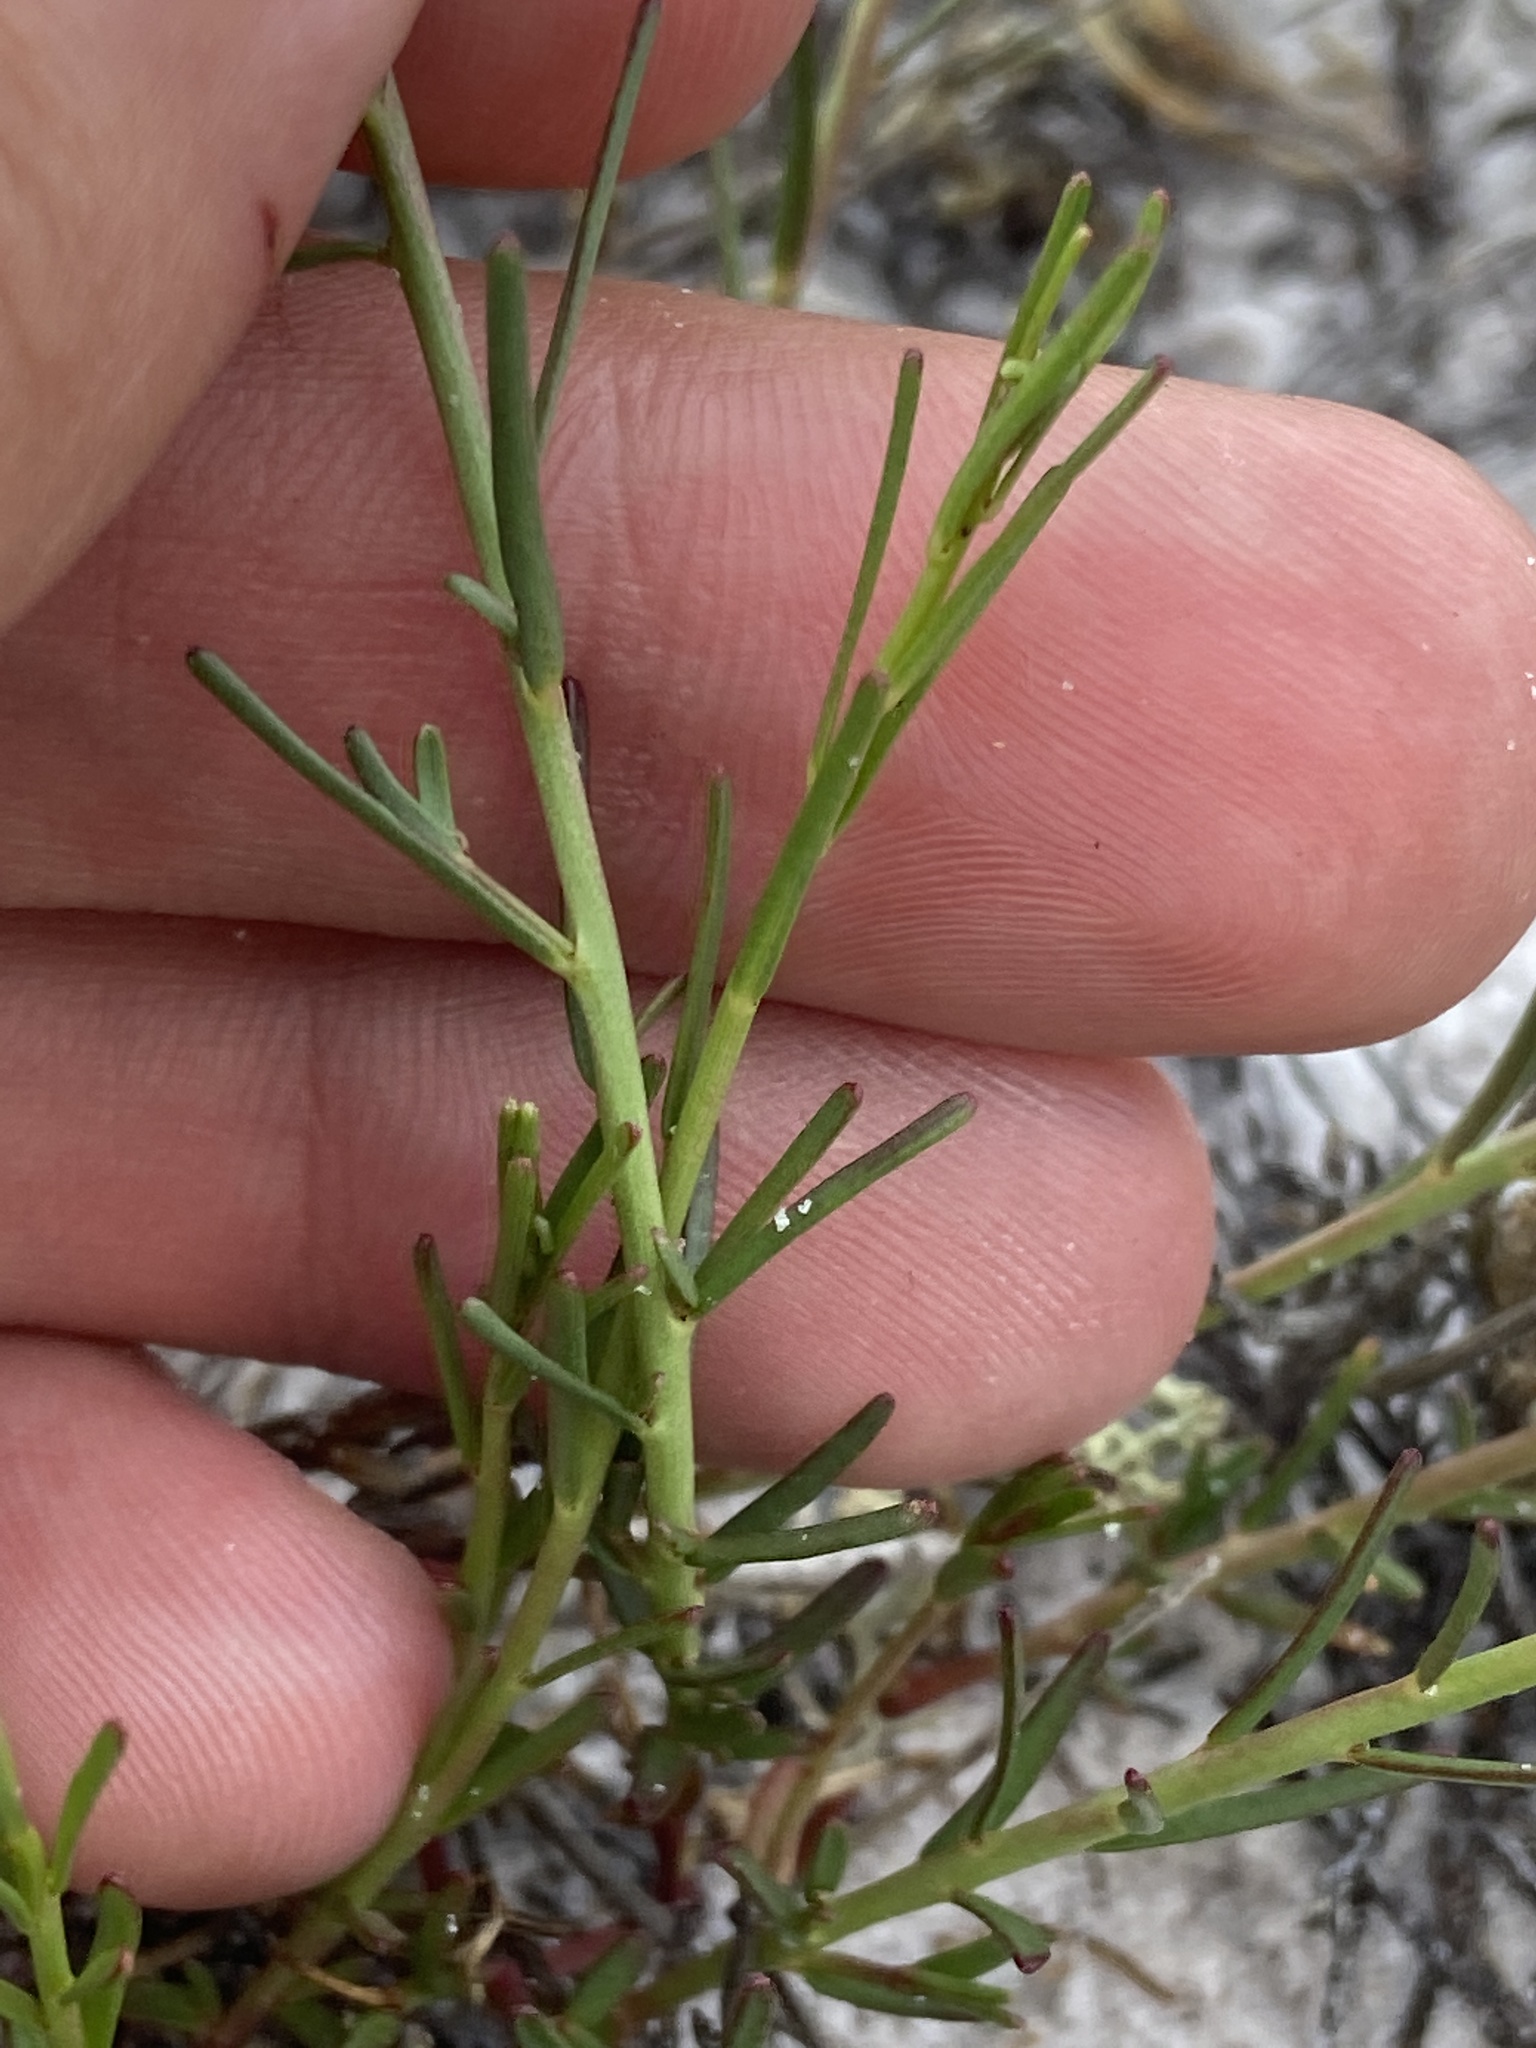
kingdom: Plantae
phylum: Tracheophyta
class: Magnoliopsida
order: Malpighiales
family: Euphorbiaceae
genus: Euphorbia
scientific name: Euphorbia polyphylla
